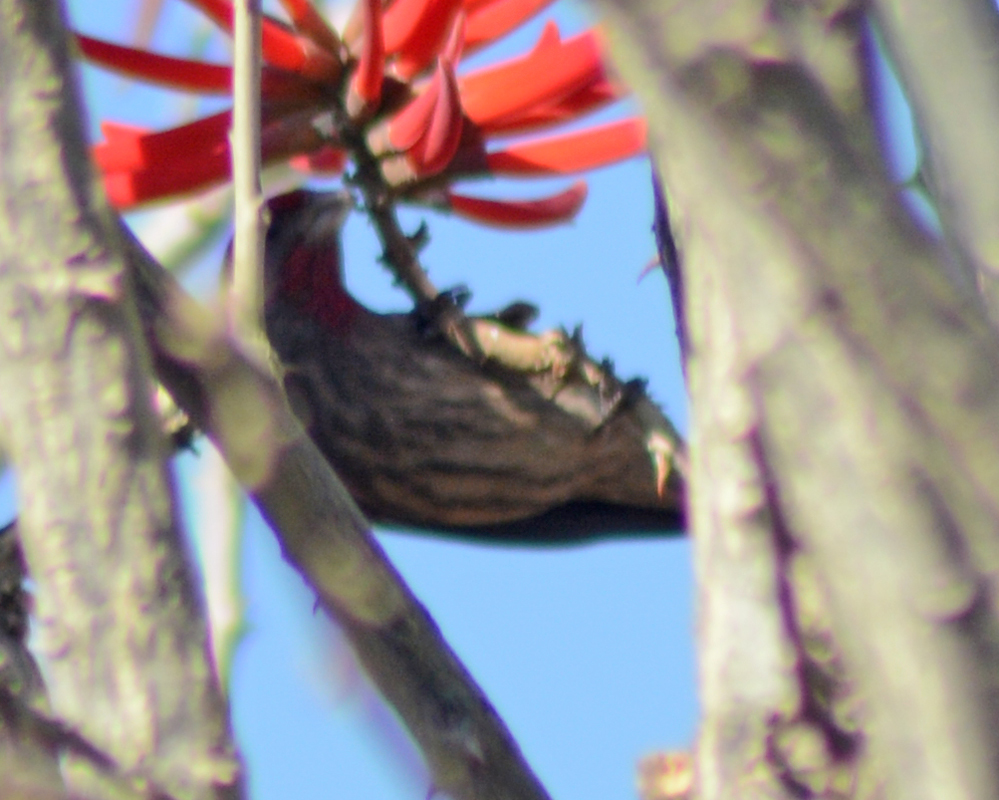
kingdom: Animalia
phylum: Chordata
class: Aves
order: Passeriformes
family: Fringillidae
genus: Haemorhous
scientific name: Haemorhous mexicanus
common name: House finch
